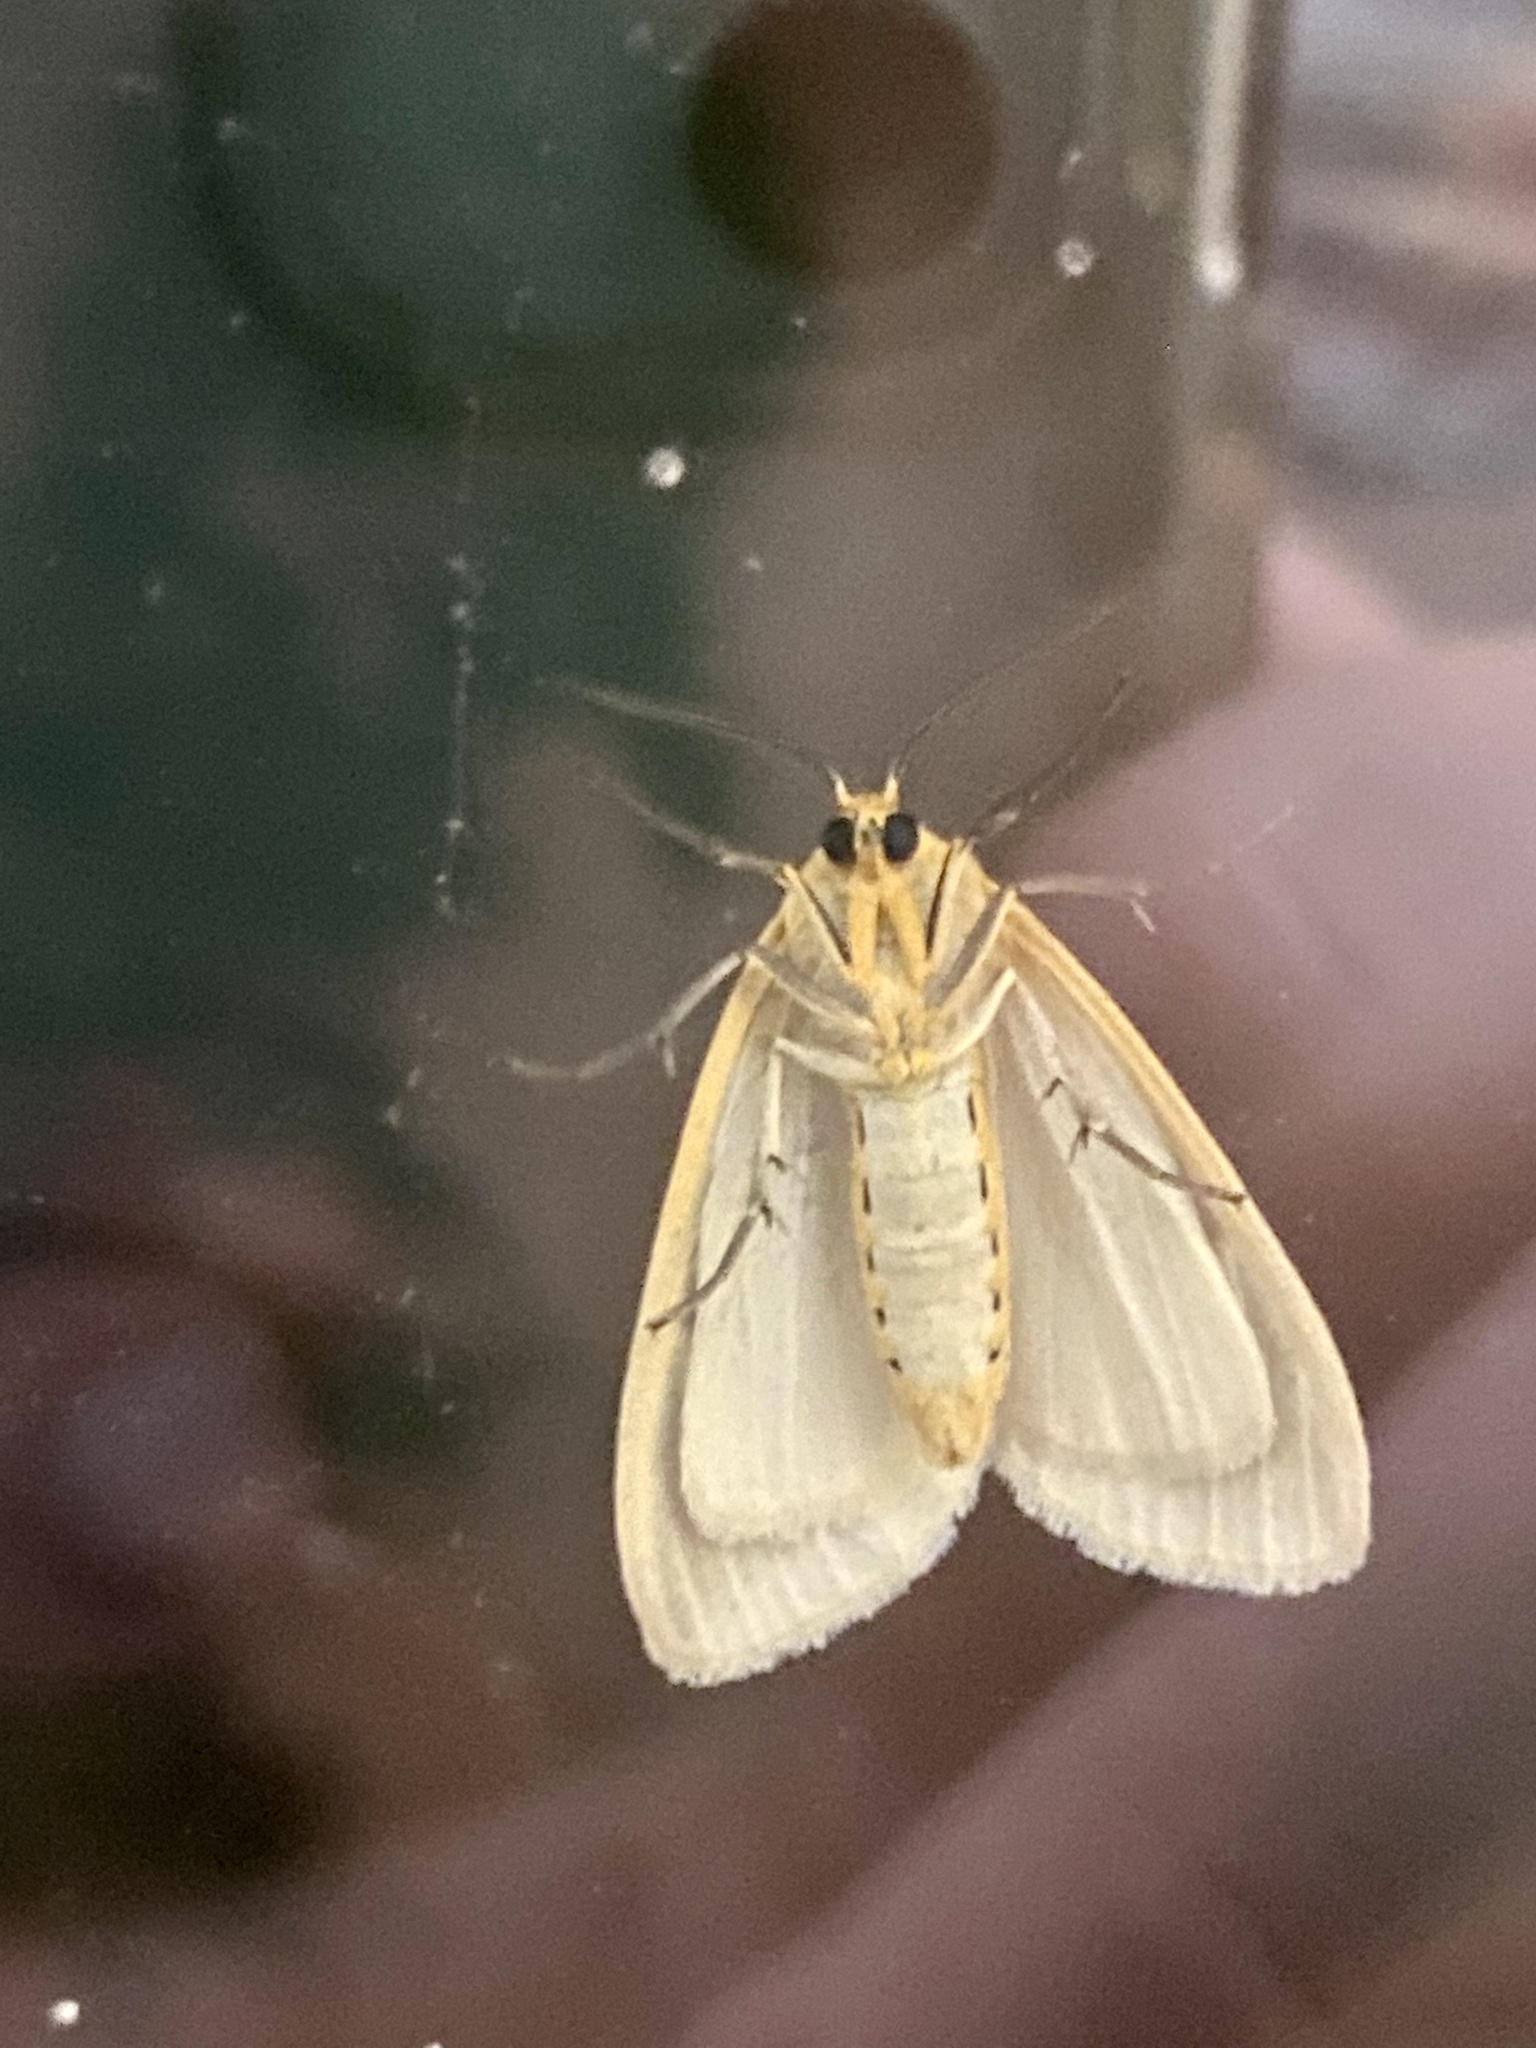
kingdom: Animalia
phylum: Arthropoda
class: Insecta
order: Lepidoptera
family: Erebidae
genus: Cycnia
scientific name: Cycnia tenera
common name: Delicate cycnia moth
